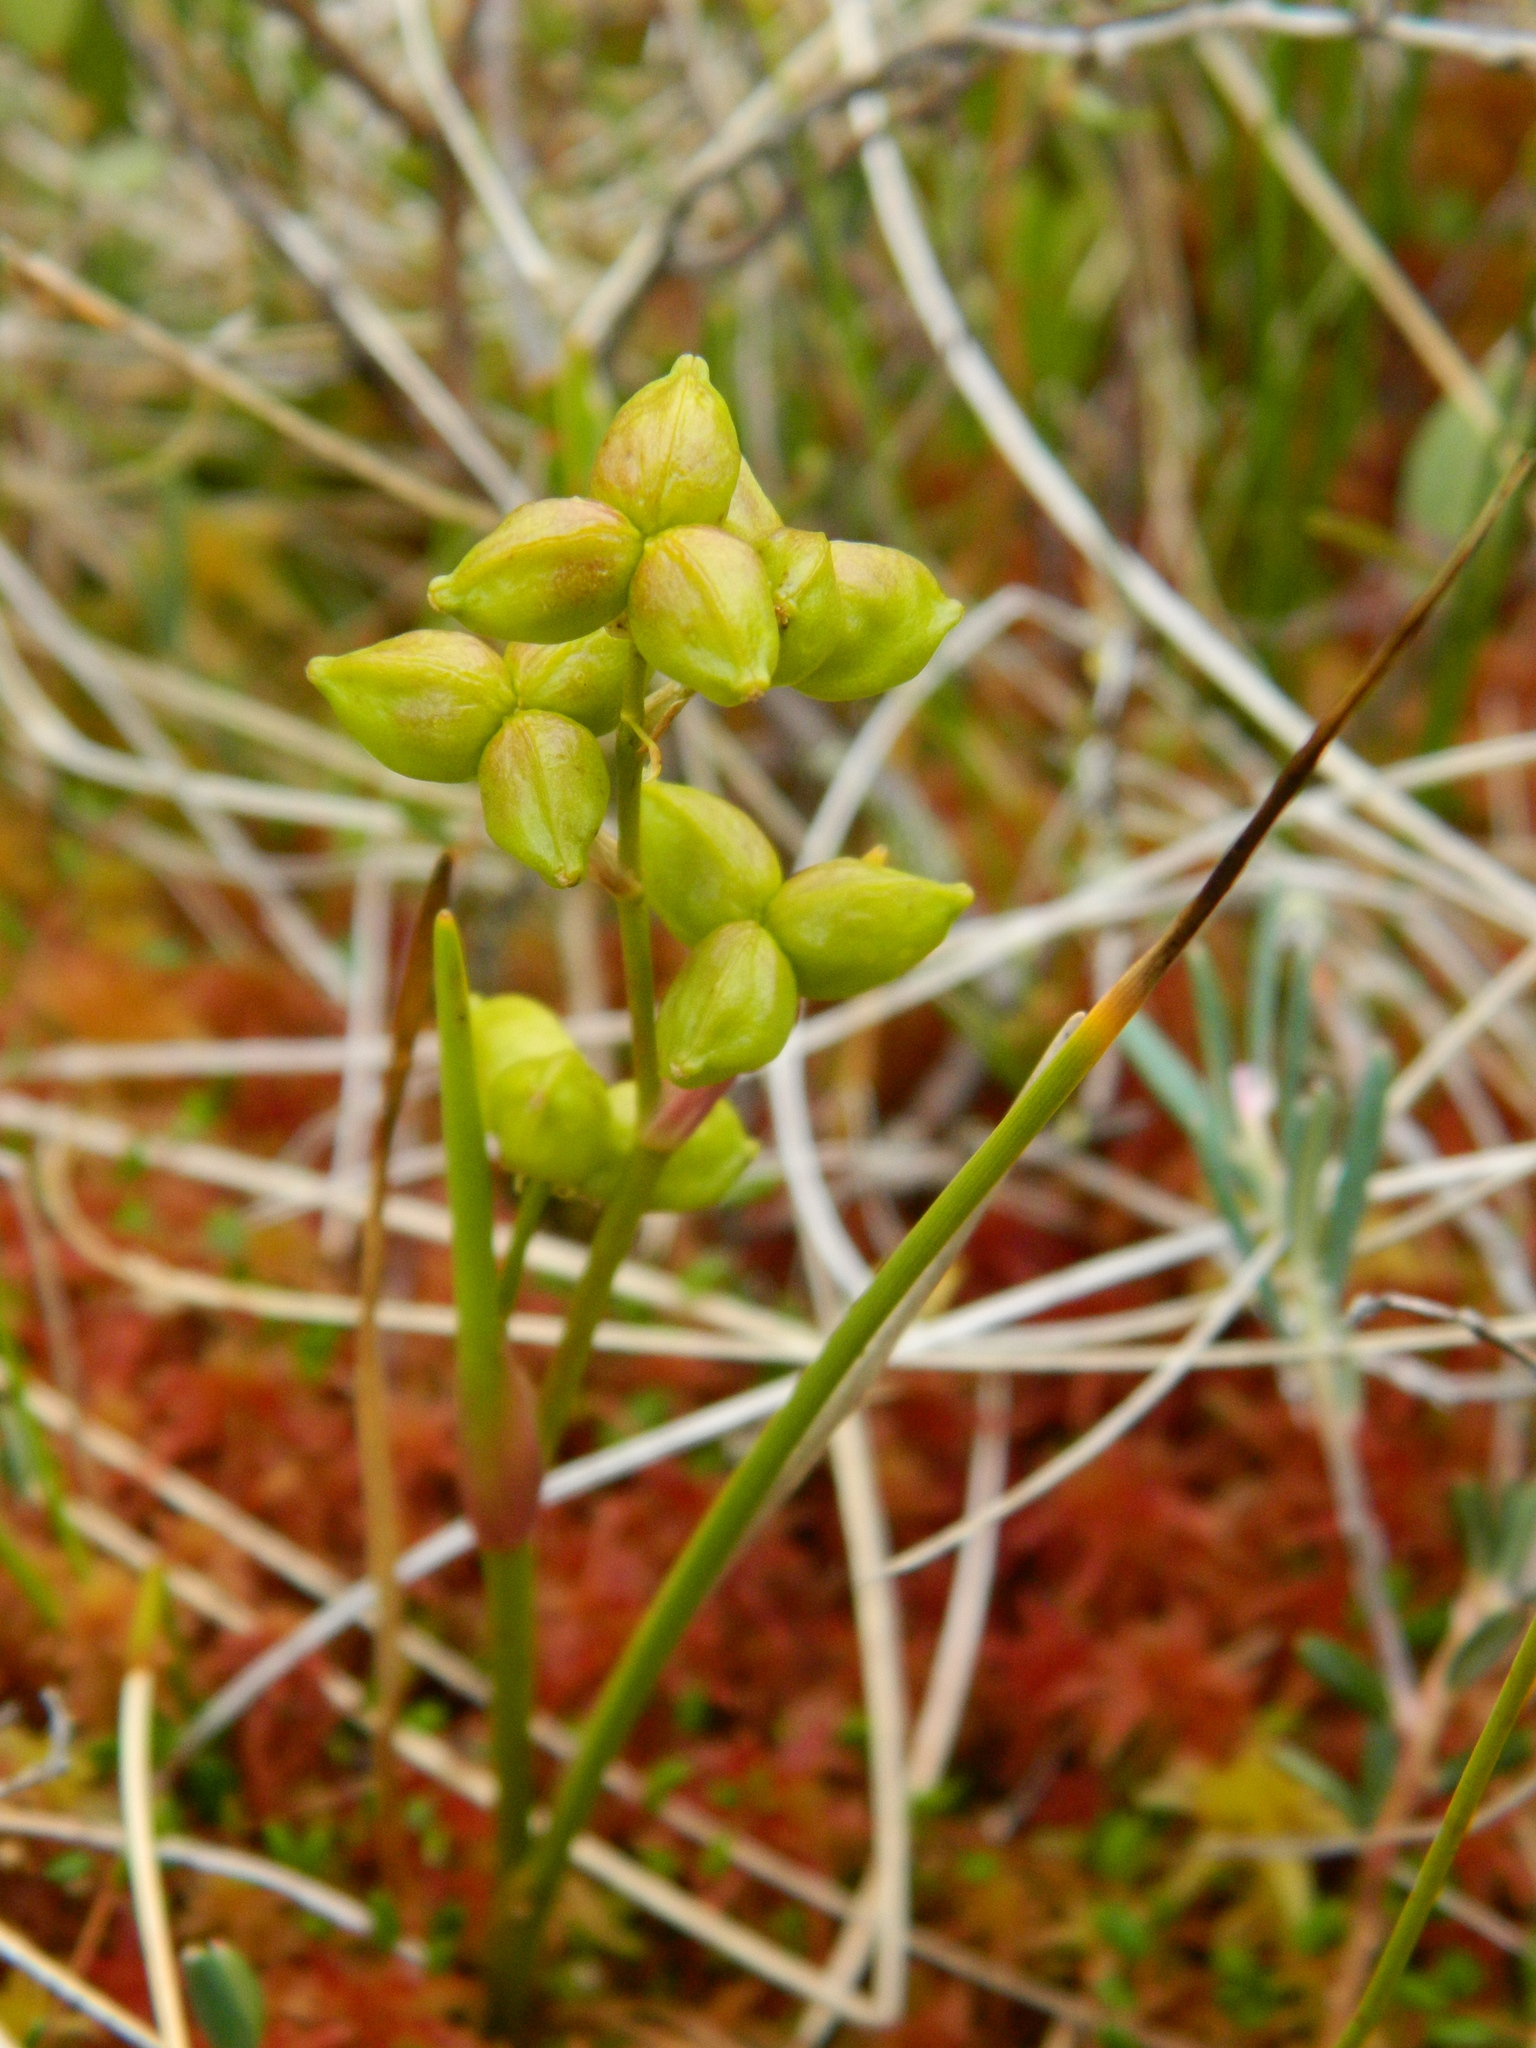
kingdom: Plantae
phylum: Tracheophyta
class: Liliopsida
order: Alismatales
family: Scheuchzeriaceae
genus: Scheuchzeria
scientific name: Scheuchzeria palustris
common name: Rannoch-rush
